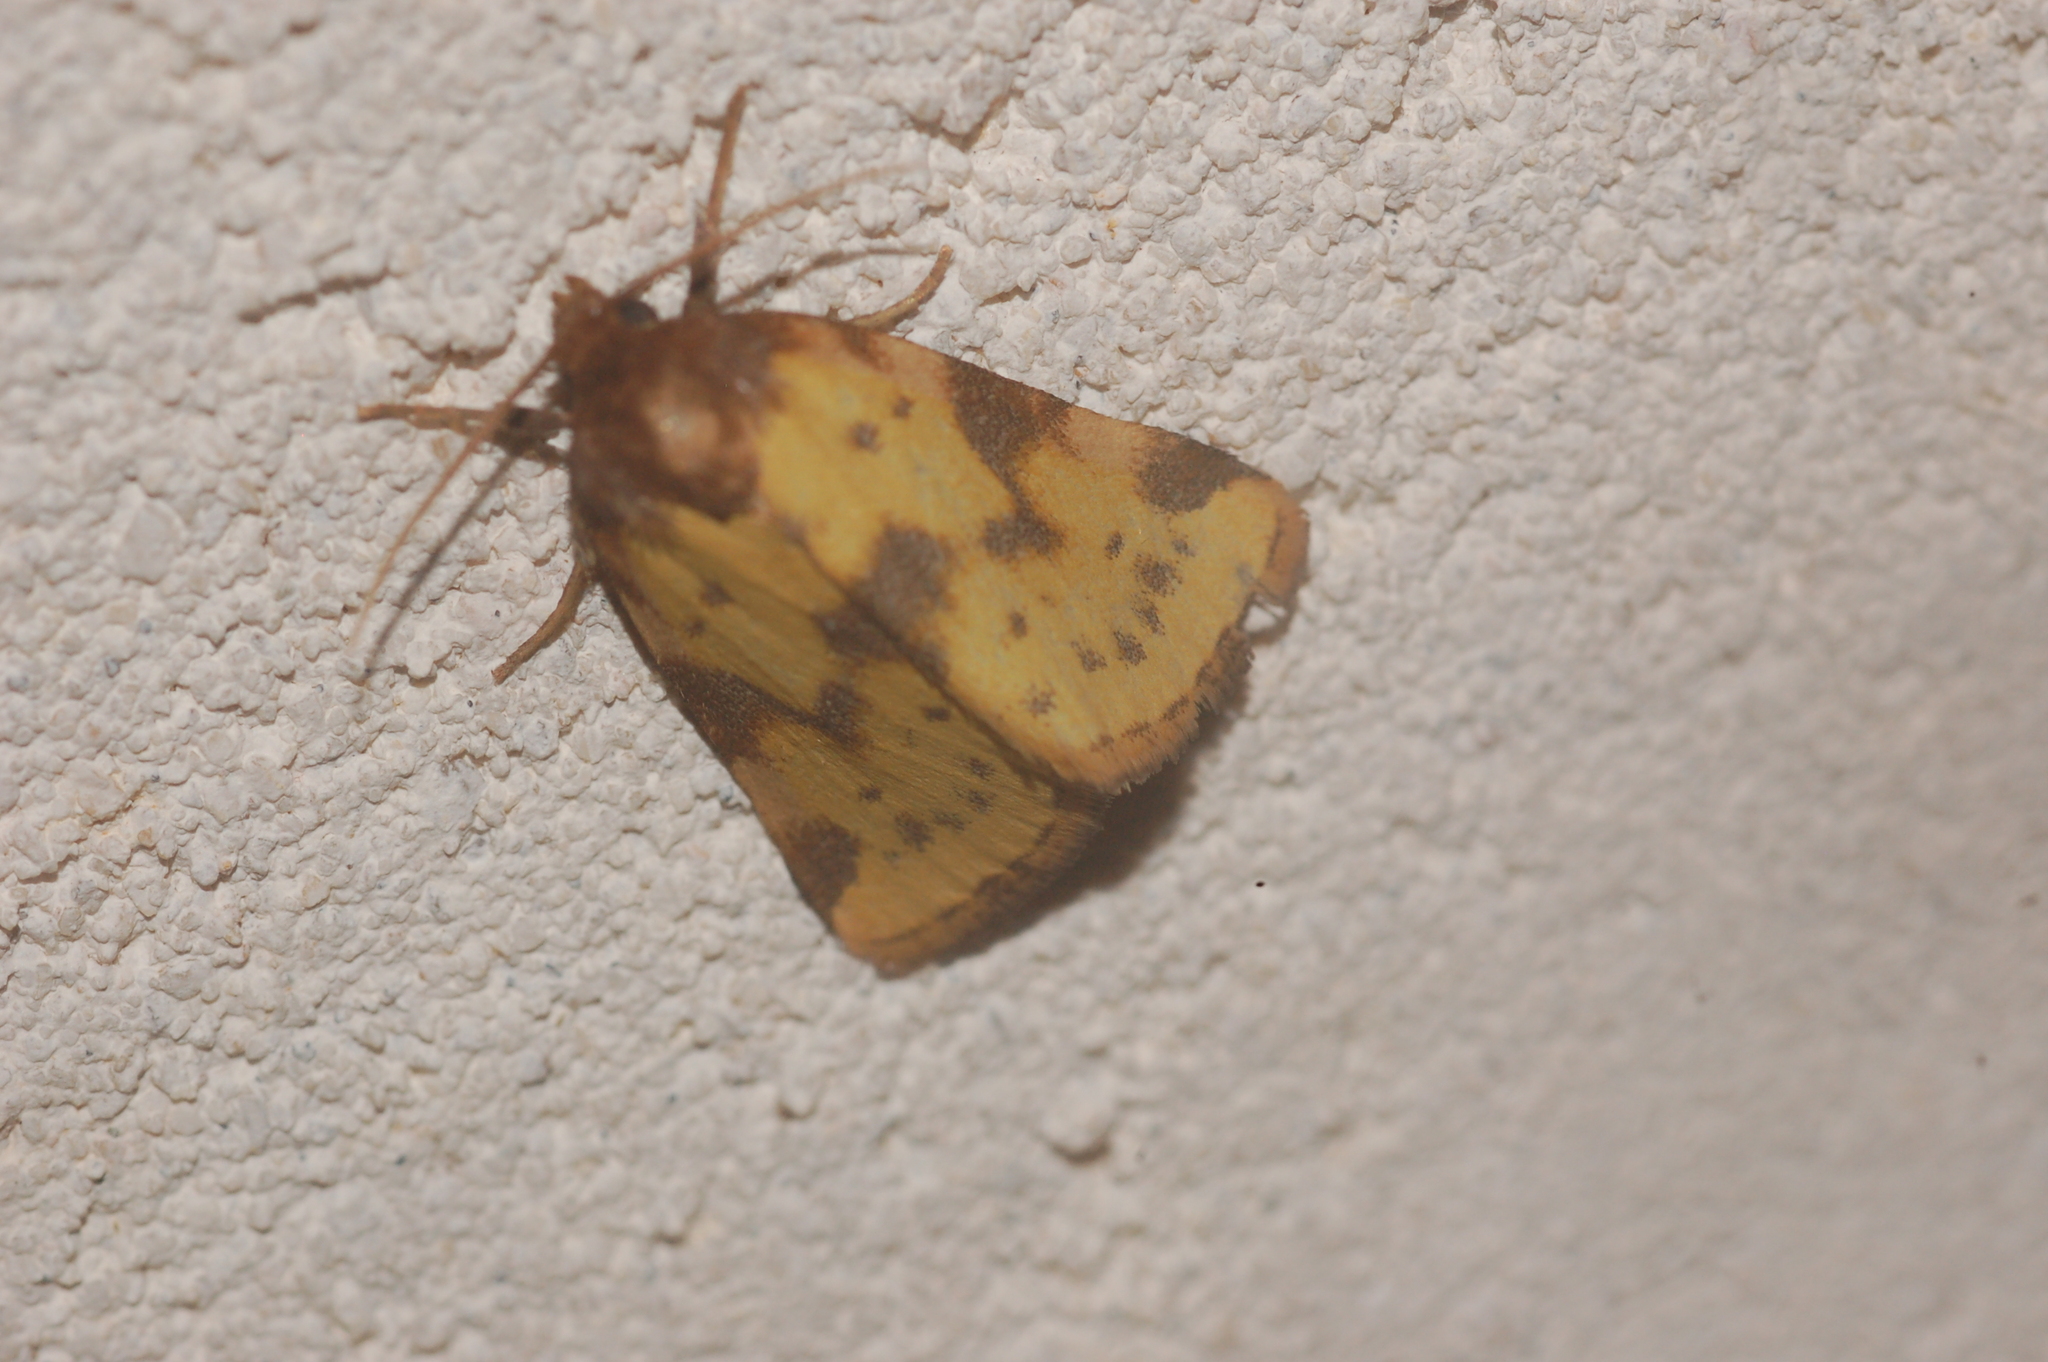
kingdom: Animalia
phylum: Arthropoda
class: Insecta
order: Lepidoptera
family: Noctuidae
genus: Azenia
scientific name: Azenia obtusa
